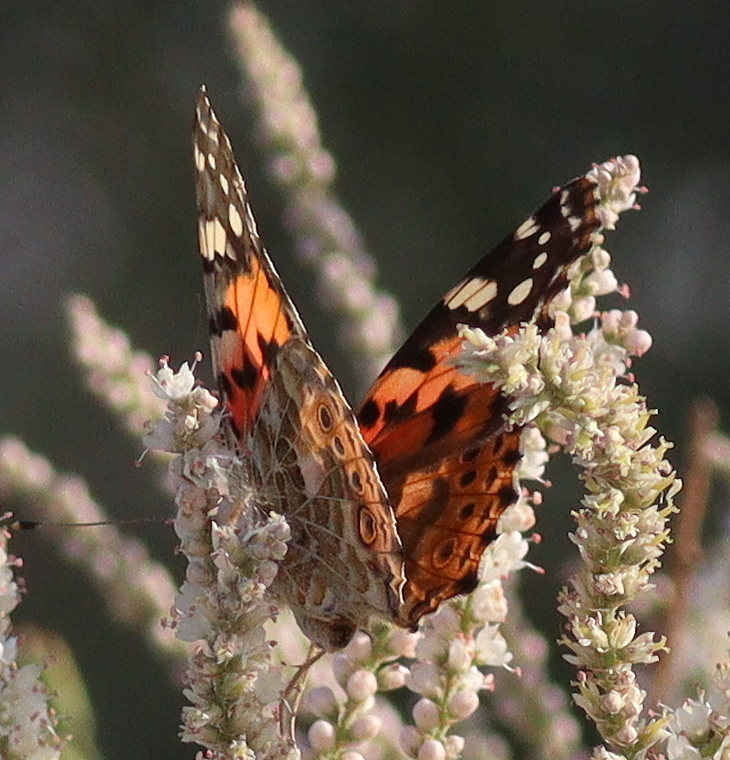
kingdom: Animalia
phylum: Arthropoda
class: Insecta
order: Lepidoptera
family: Nymphalidae
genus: Vanessa
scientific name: Vanessa cardui
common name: Painted lady
